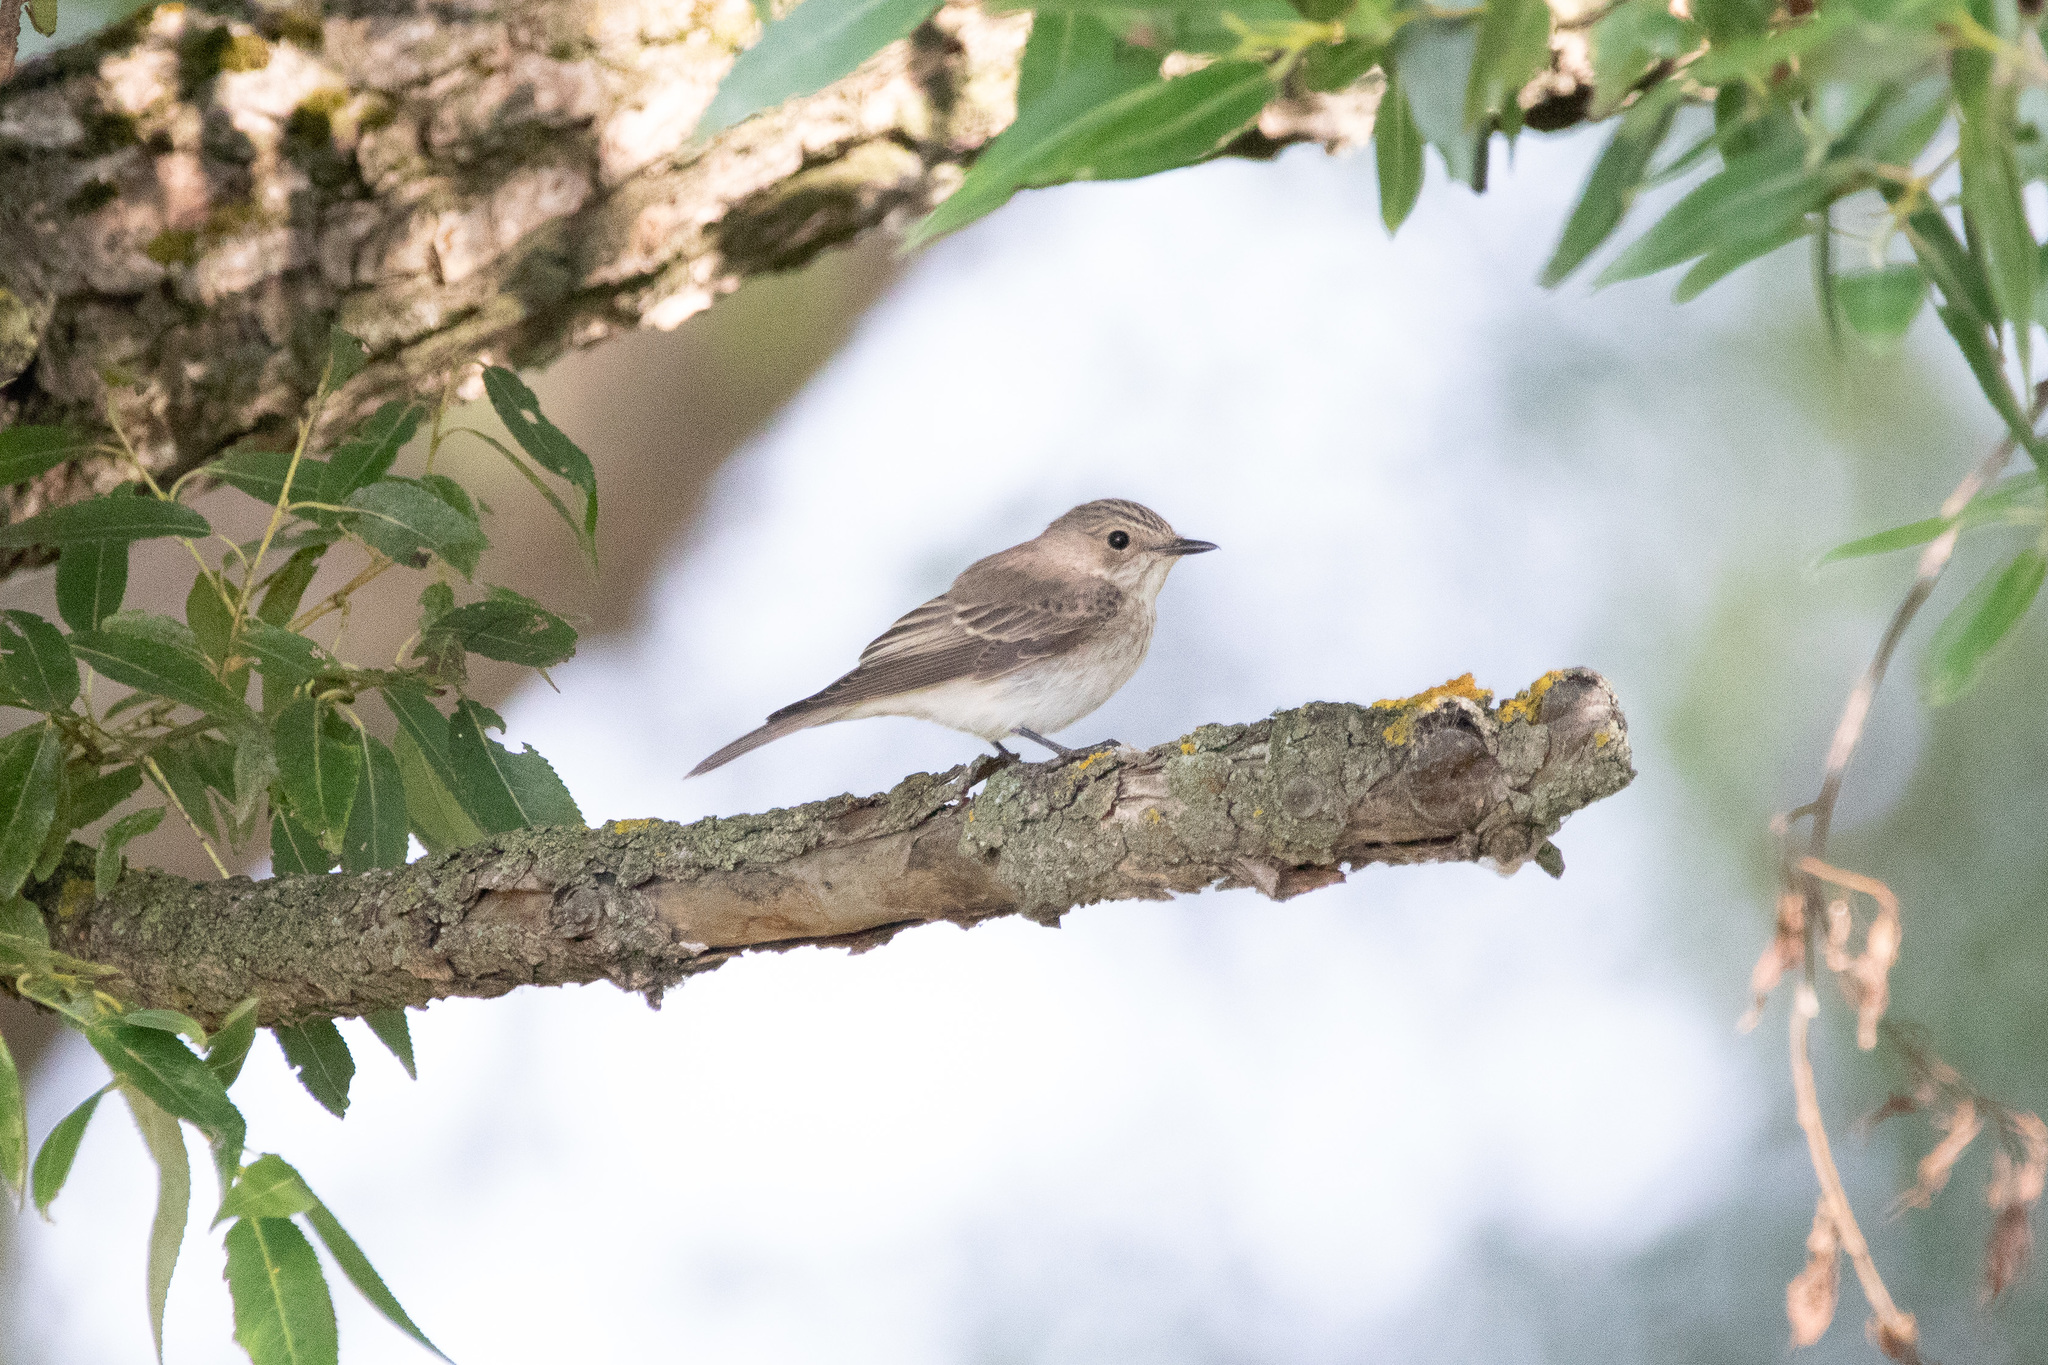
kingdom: Animalia
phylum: Chordata
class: Aves
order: Passeriformes
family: Muscicapidae
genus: Muscicapa
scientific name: Muscicapa striata
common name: Spotted flycatcher
